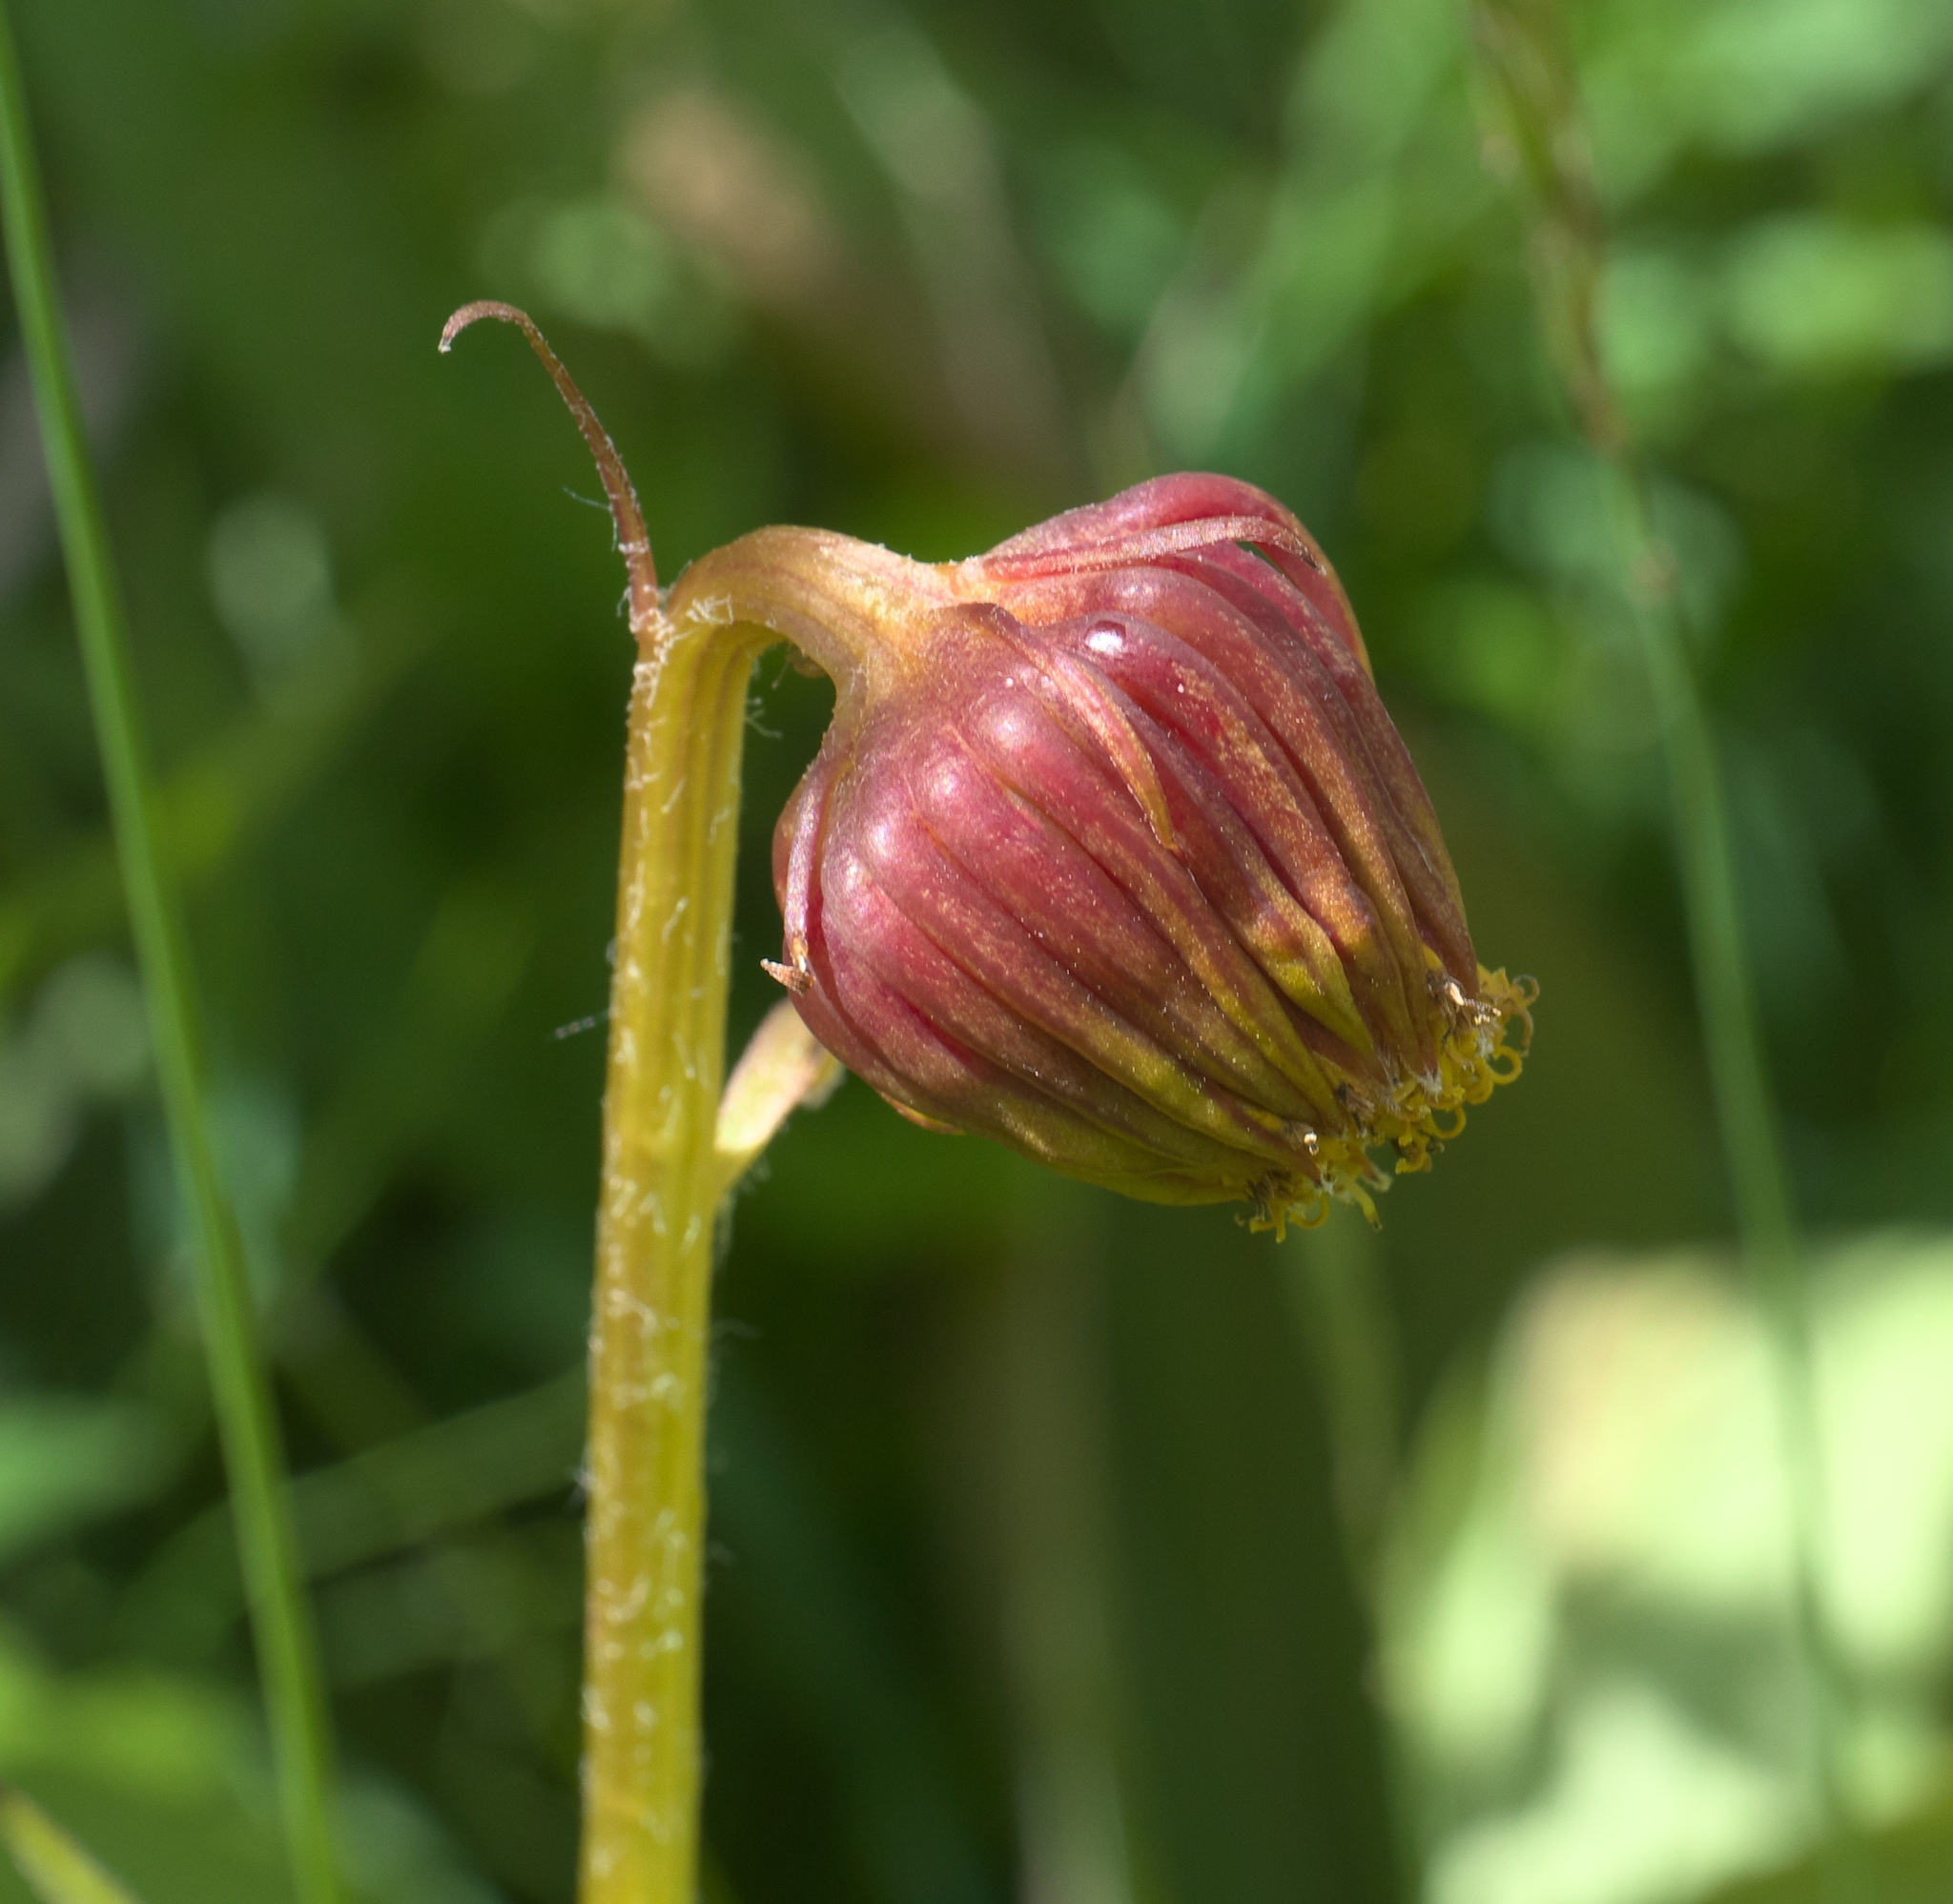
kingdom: Plantae
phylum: Tracheophyta
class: Magnoliopsida
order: Asterales
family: Asteraceae
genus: Senecio
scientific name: Senecio bigelovii
